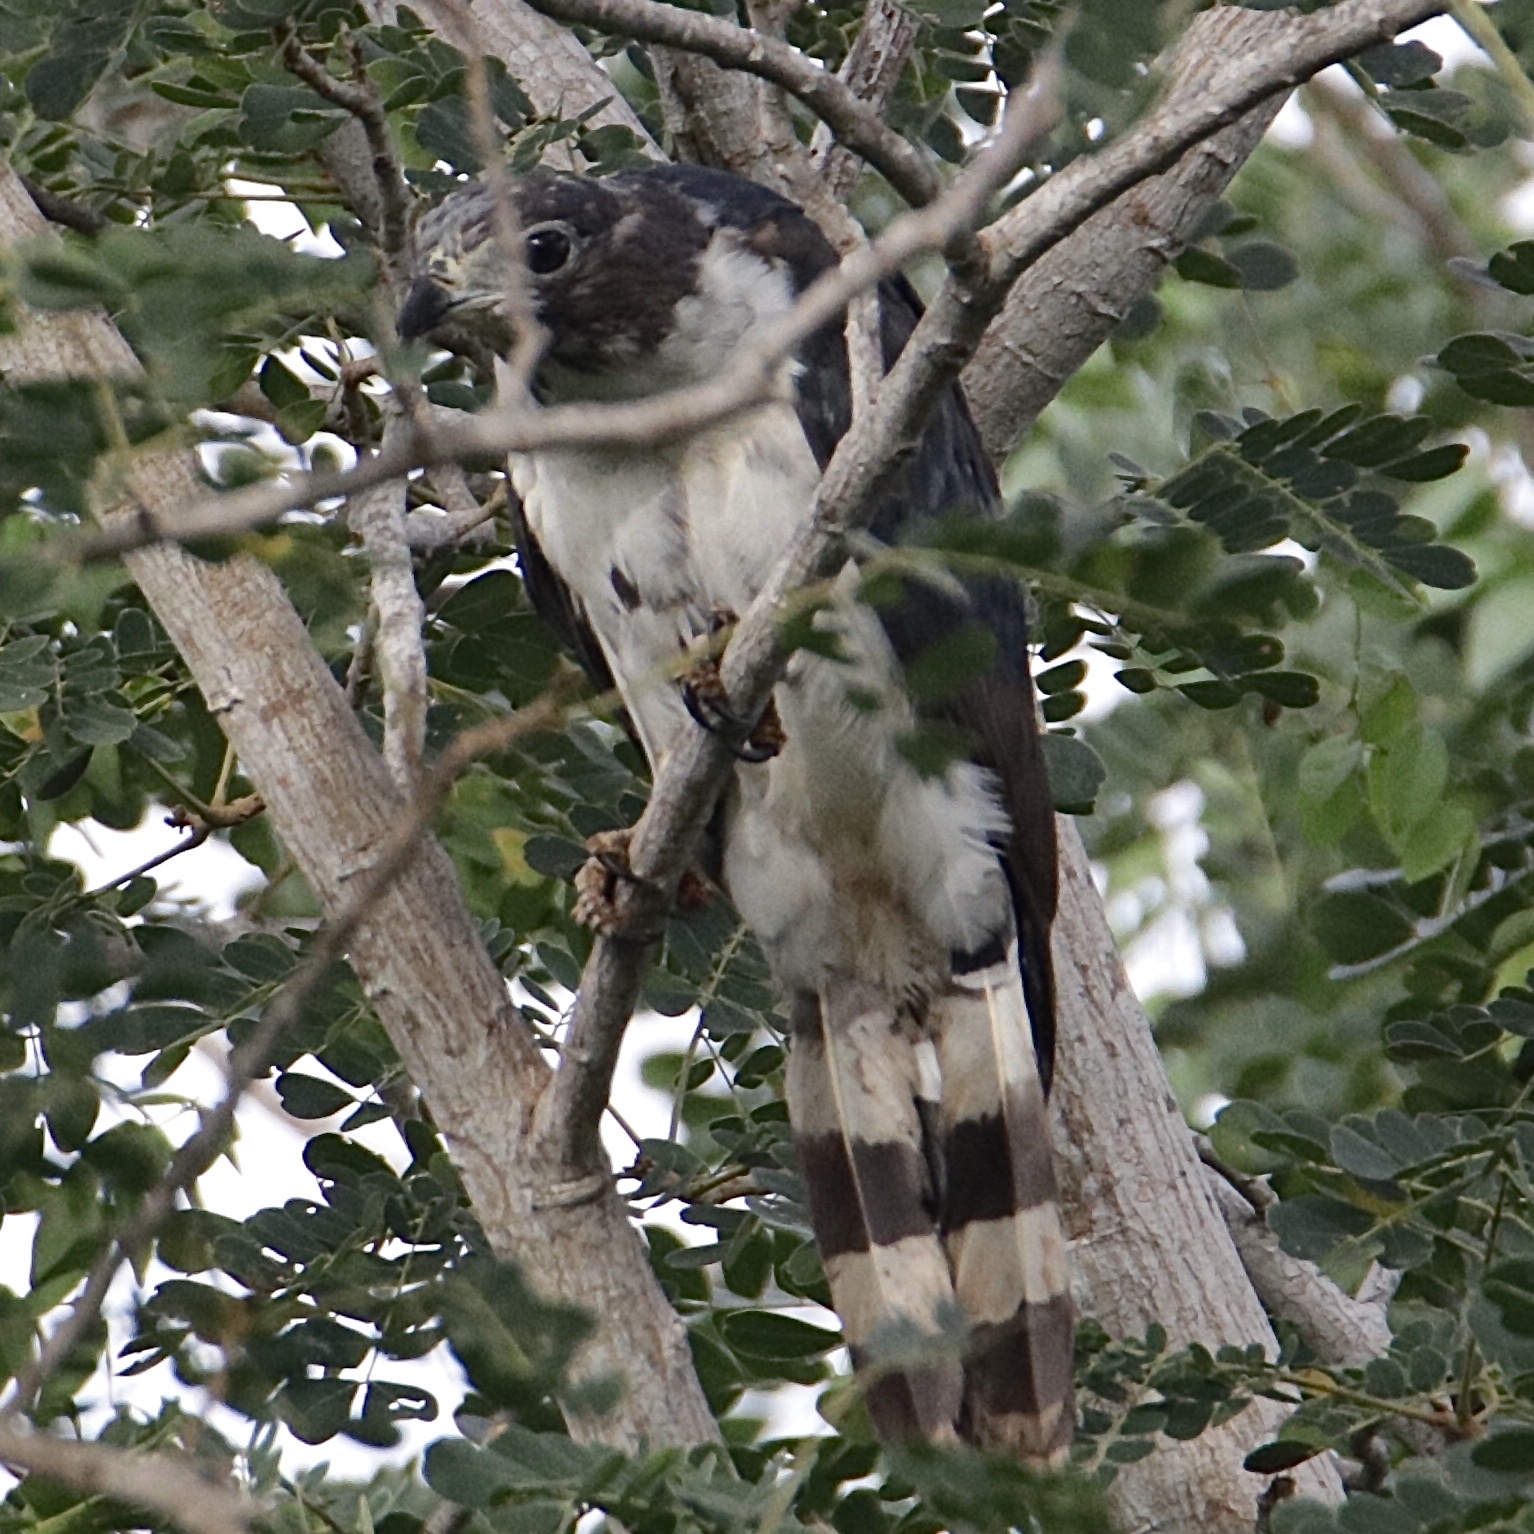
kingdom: Animalia
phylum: Chordata
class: Aves
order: Accipitriformes
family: Accipitridae
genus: Leptodon
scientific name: Leptodon cayanensis
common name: Gray-headed kite
